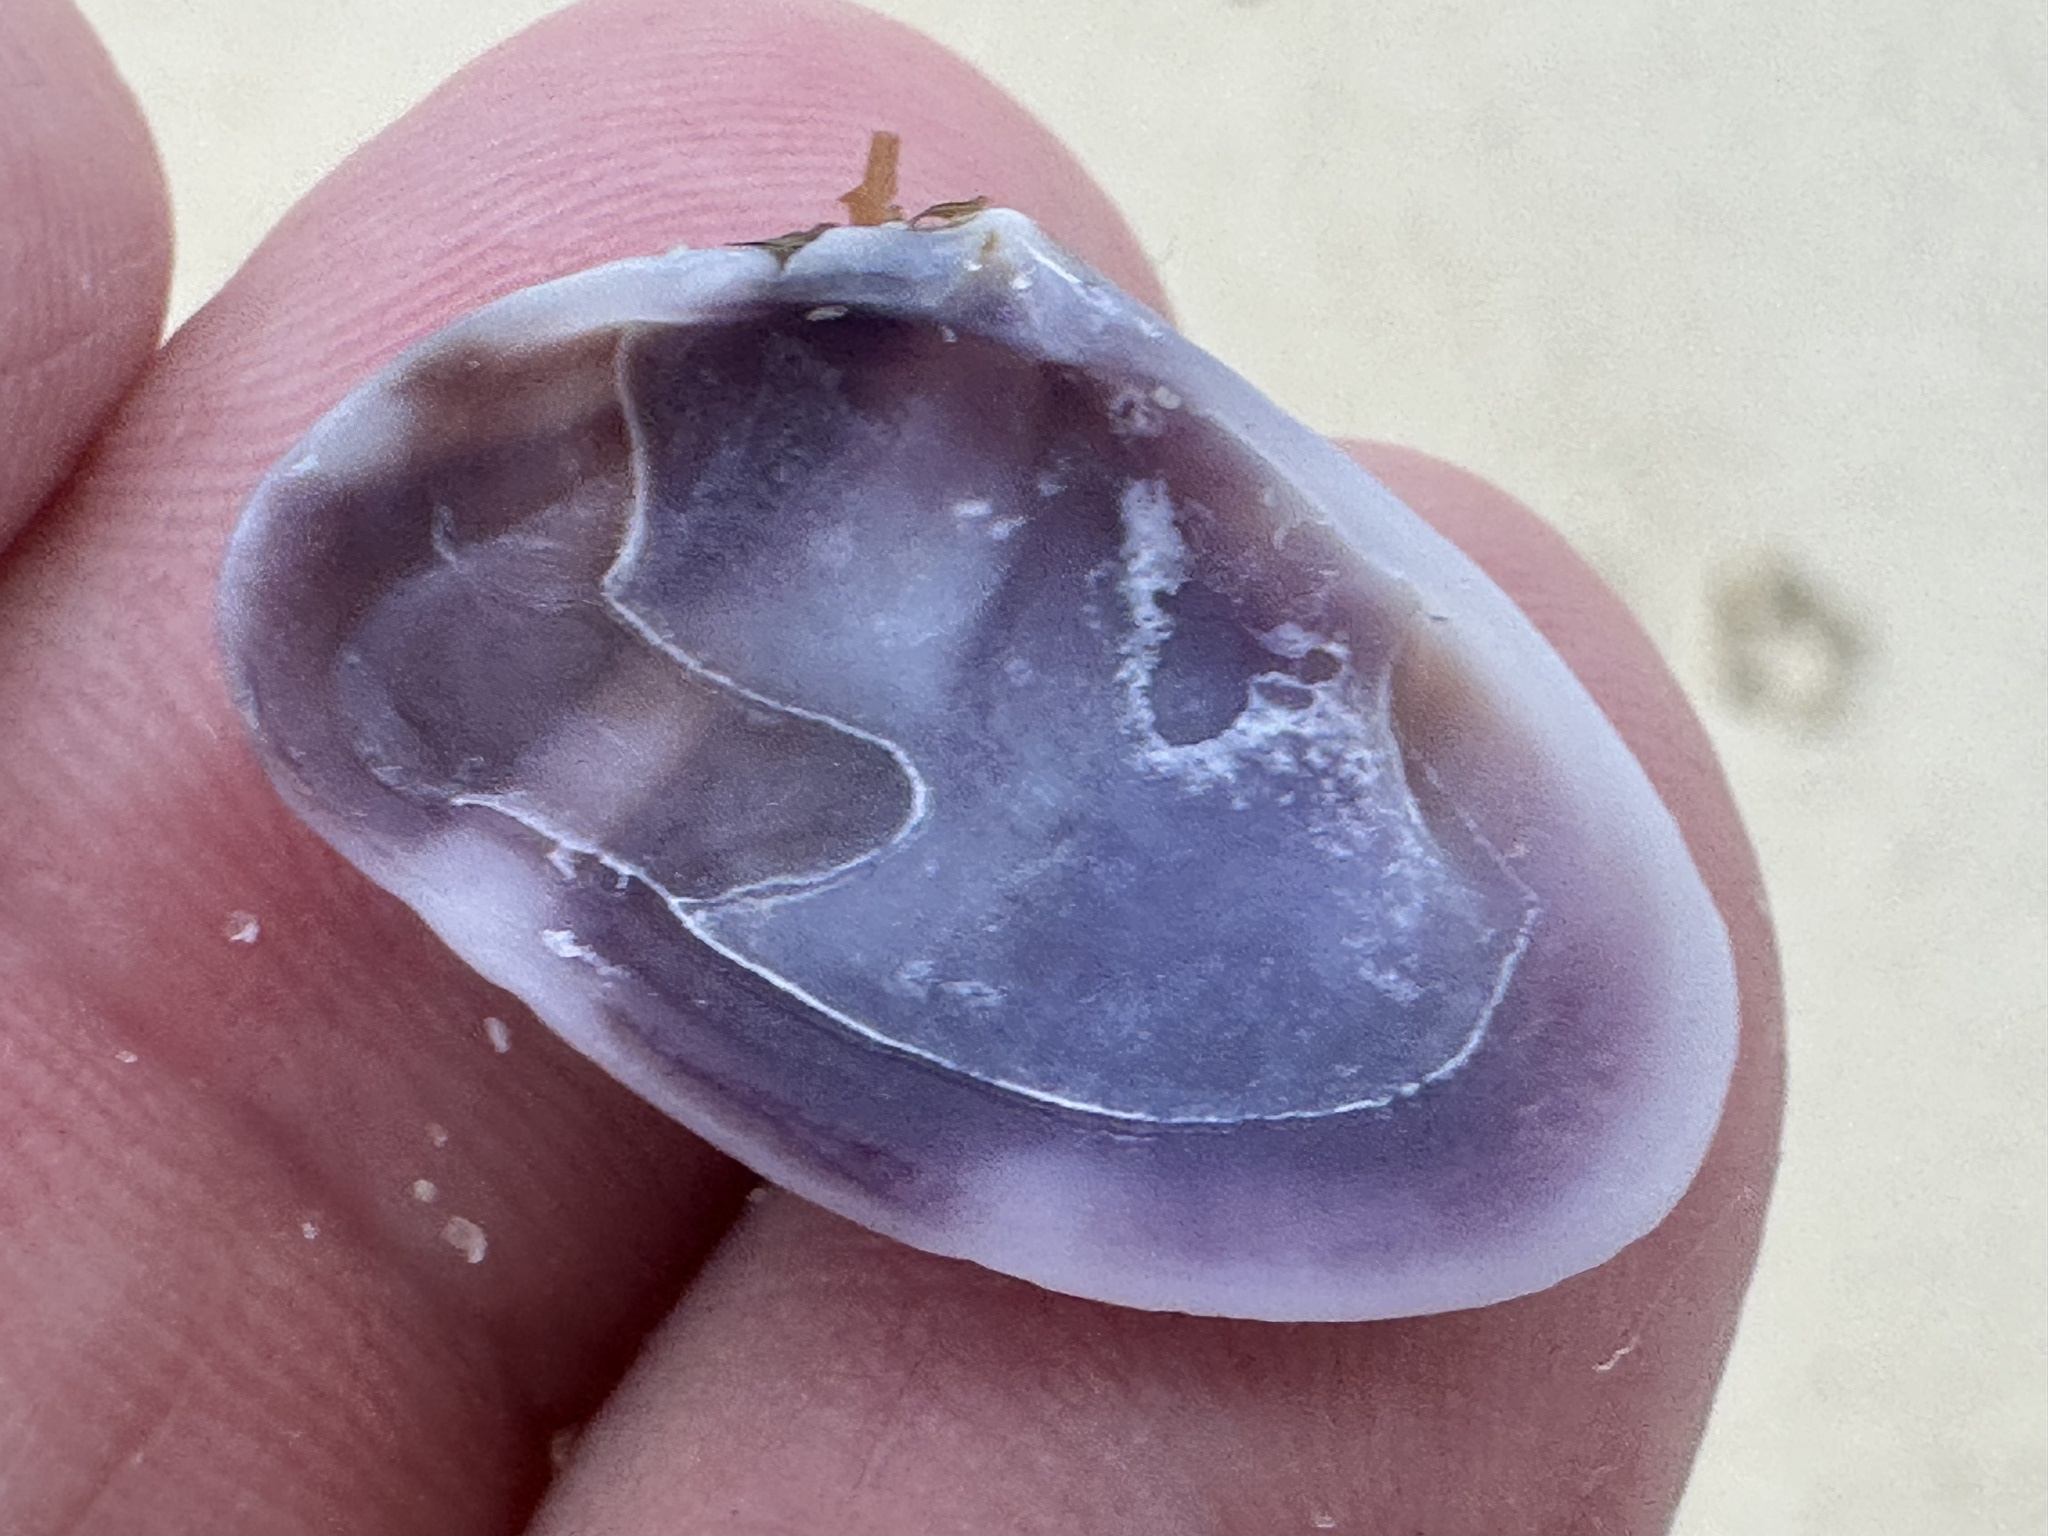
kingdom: Animalia
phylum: Mollusca
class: Bivalvia
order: Cardiida
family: Donacidae
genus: Donax
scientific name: Donax faba
